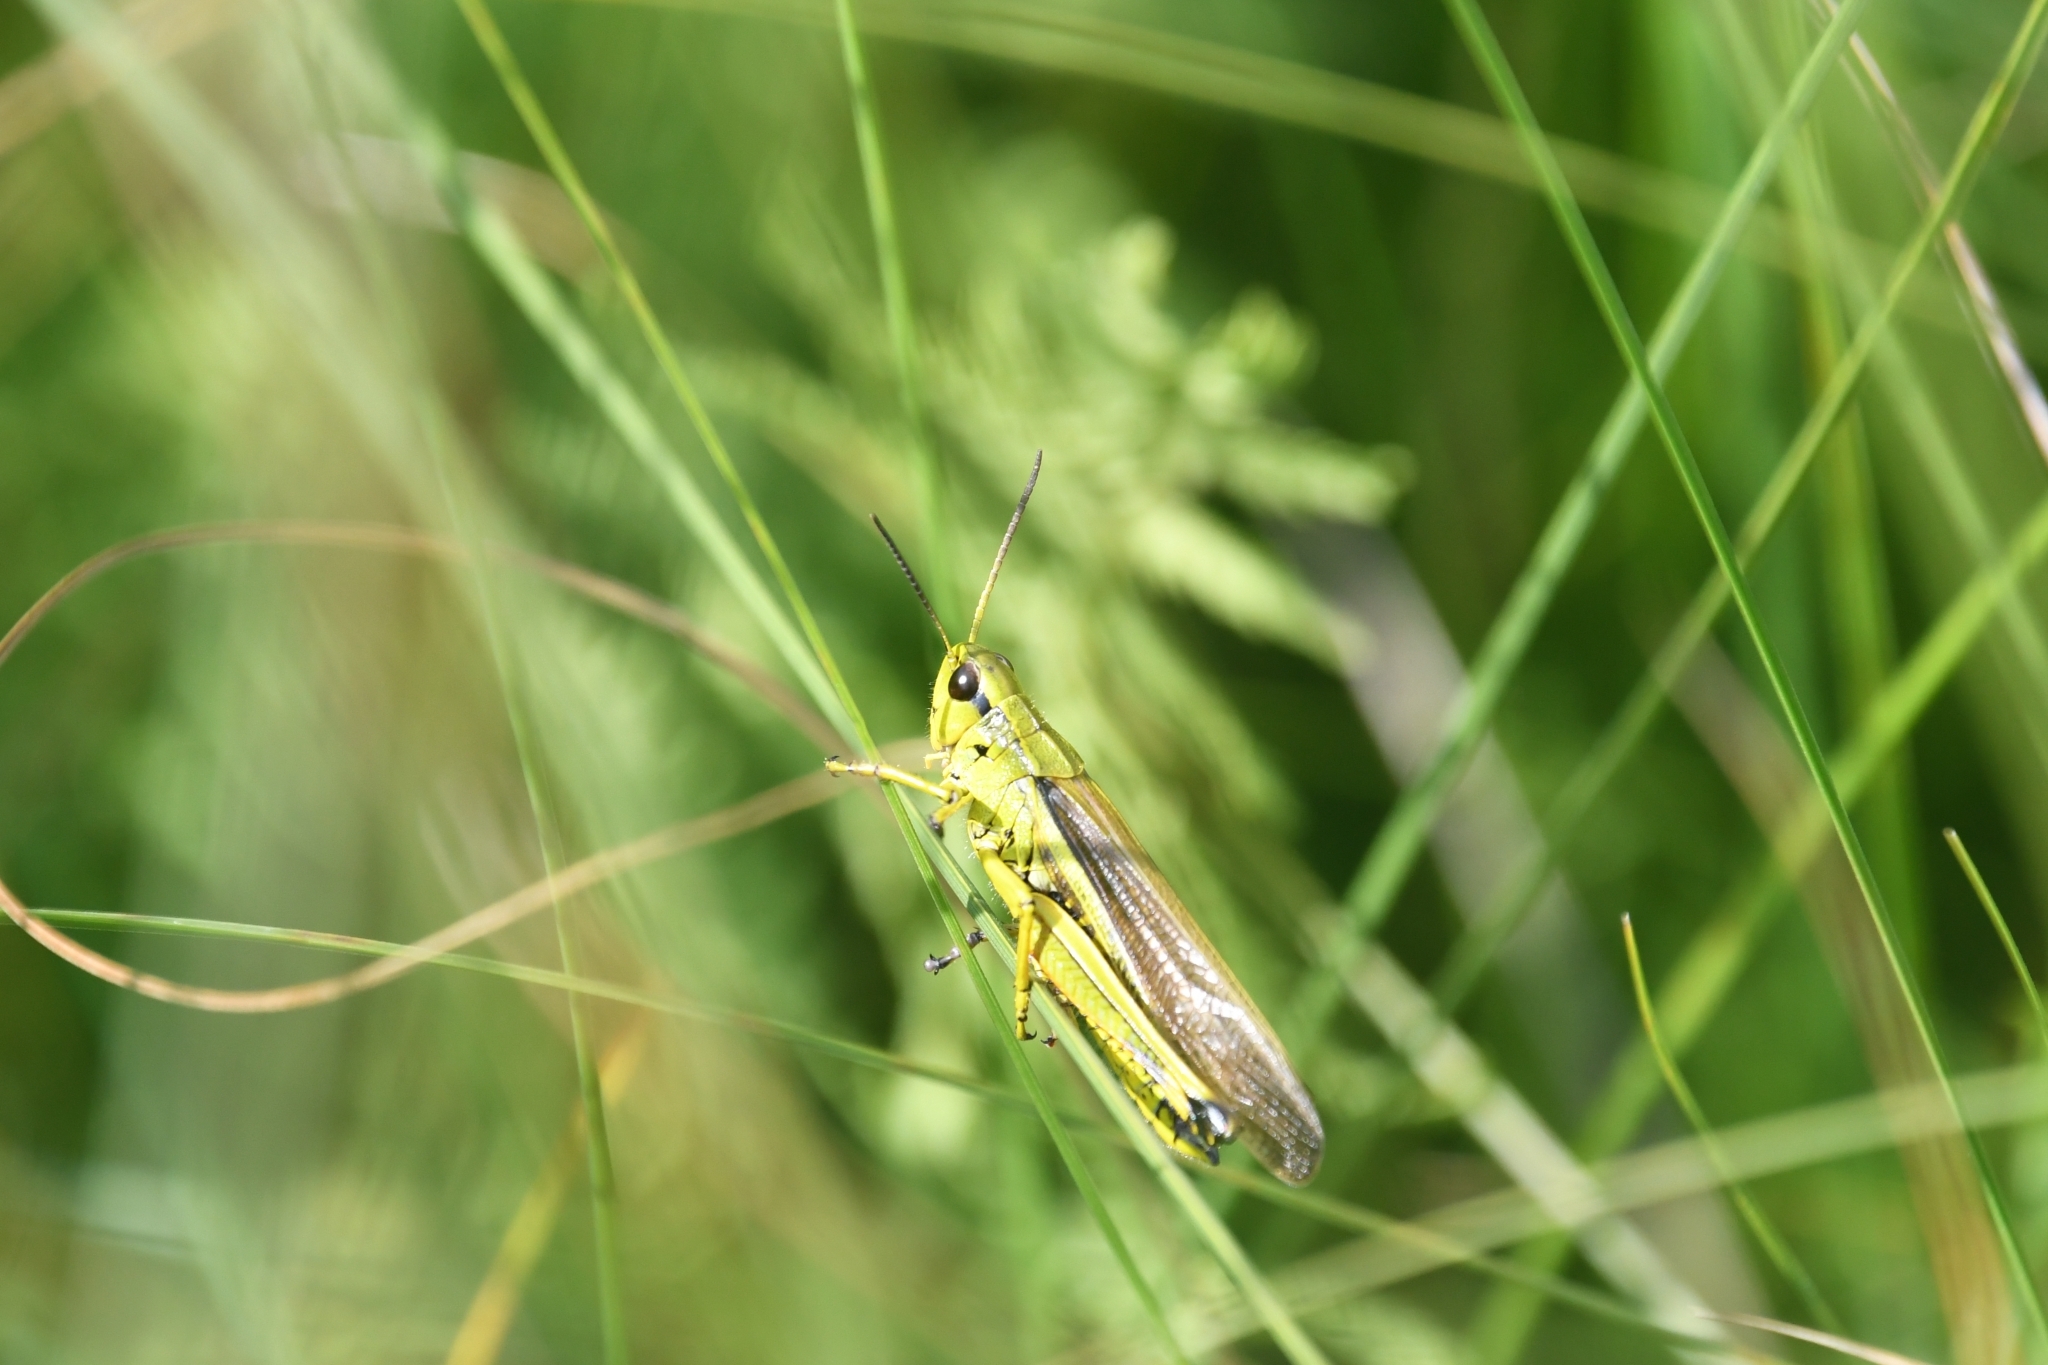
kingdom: Animalia
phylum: Arthropoda
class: Insecta
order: Orthoptera
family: Acrididae
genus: Stethophyma
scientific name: Stethophyma grossum
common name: Large marsh grasshopper
